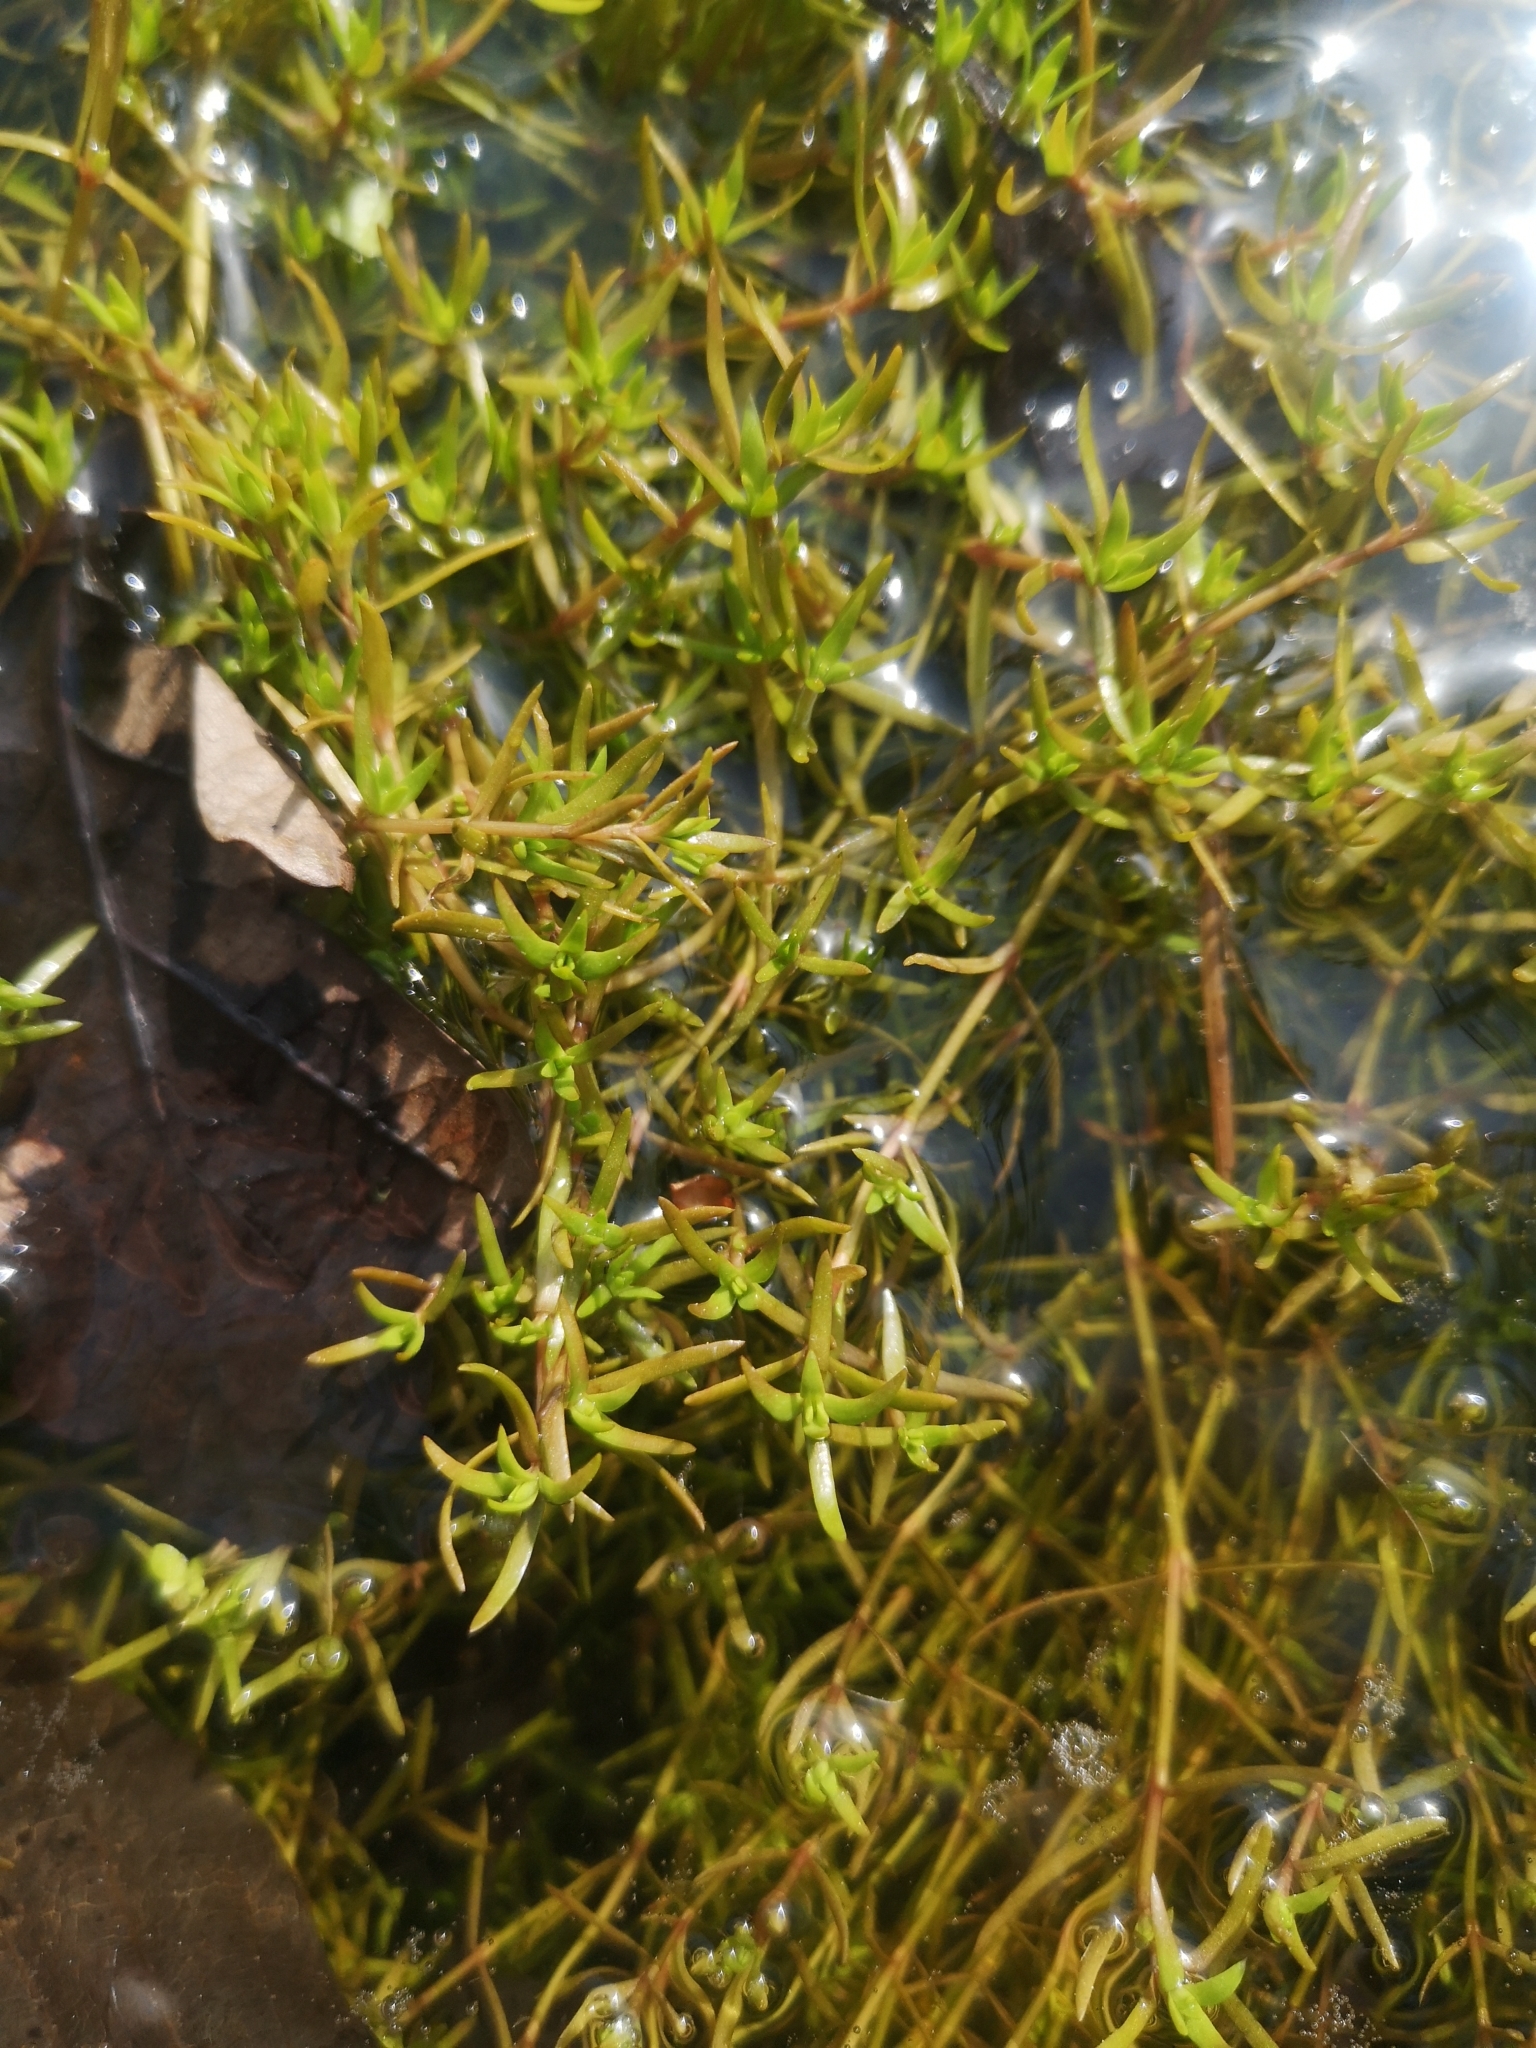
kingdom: Plantae
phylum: Tracheophyta
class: Magnoliopsida
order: Saxifragales
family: Crassulaceae
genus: Crassula
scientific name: Crassula helmsii
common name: New zealand pigmyweed
